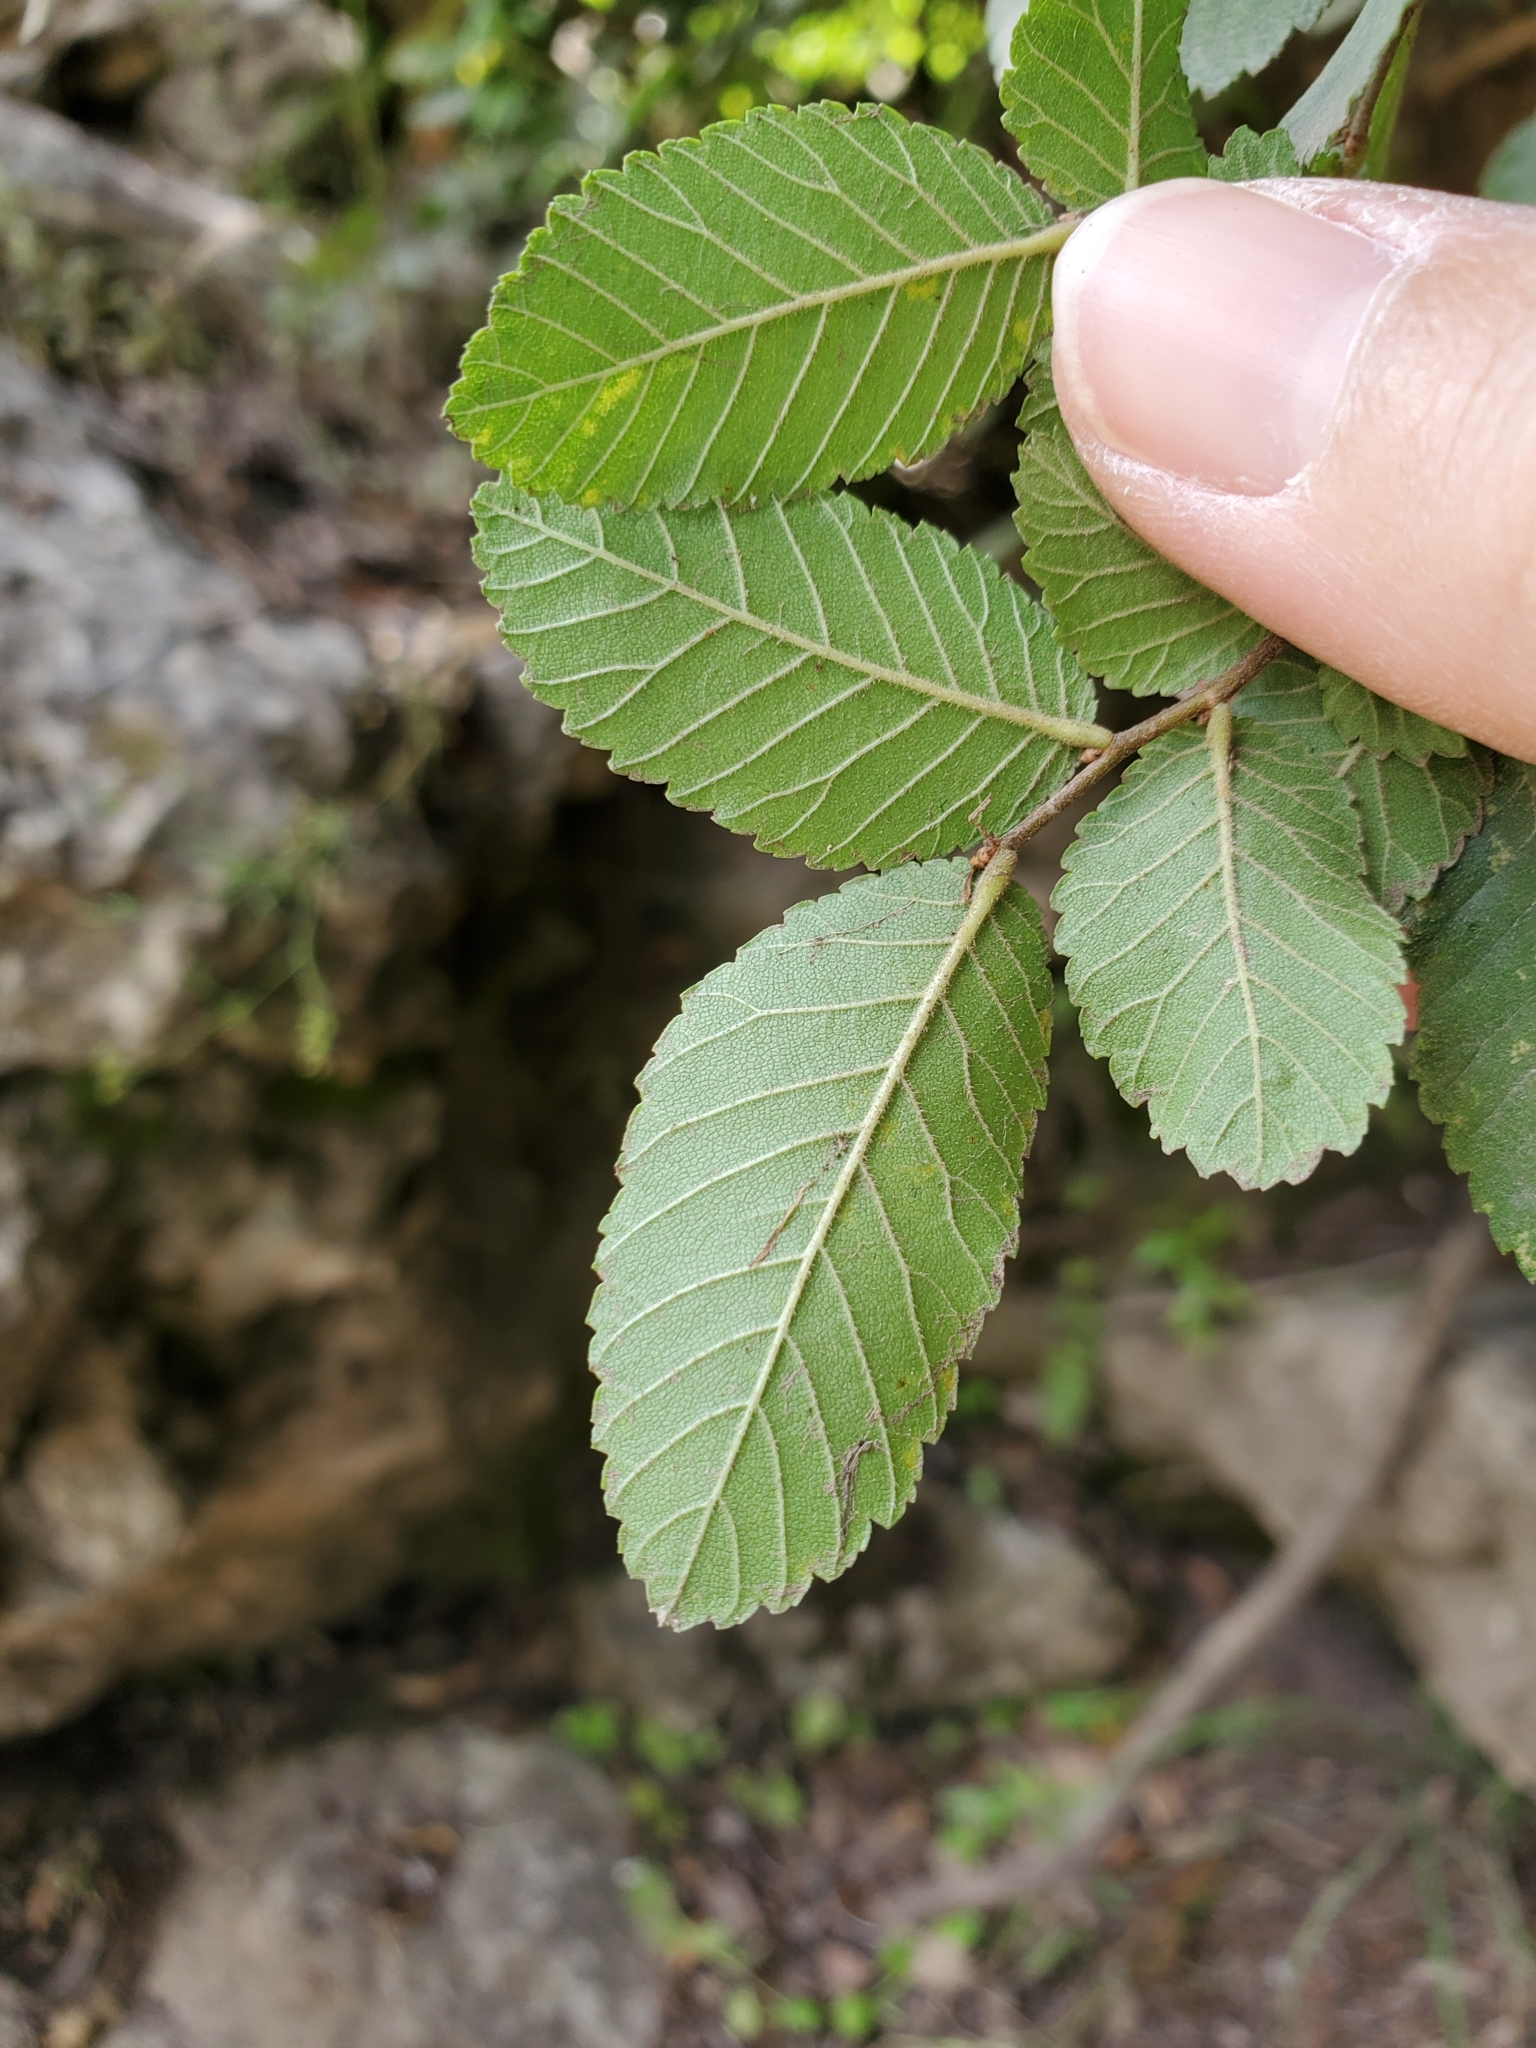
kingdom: Plantae
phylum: Tracheophyta
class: Magnoliopsida
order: Rosales
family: Ulmaceae
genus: Ulmus
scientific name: Ulmus crassifolia
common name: Basket elm
